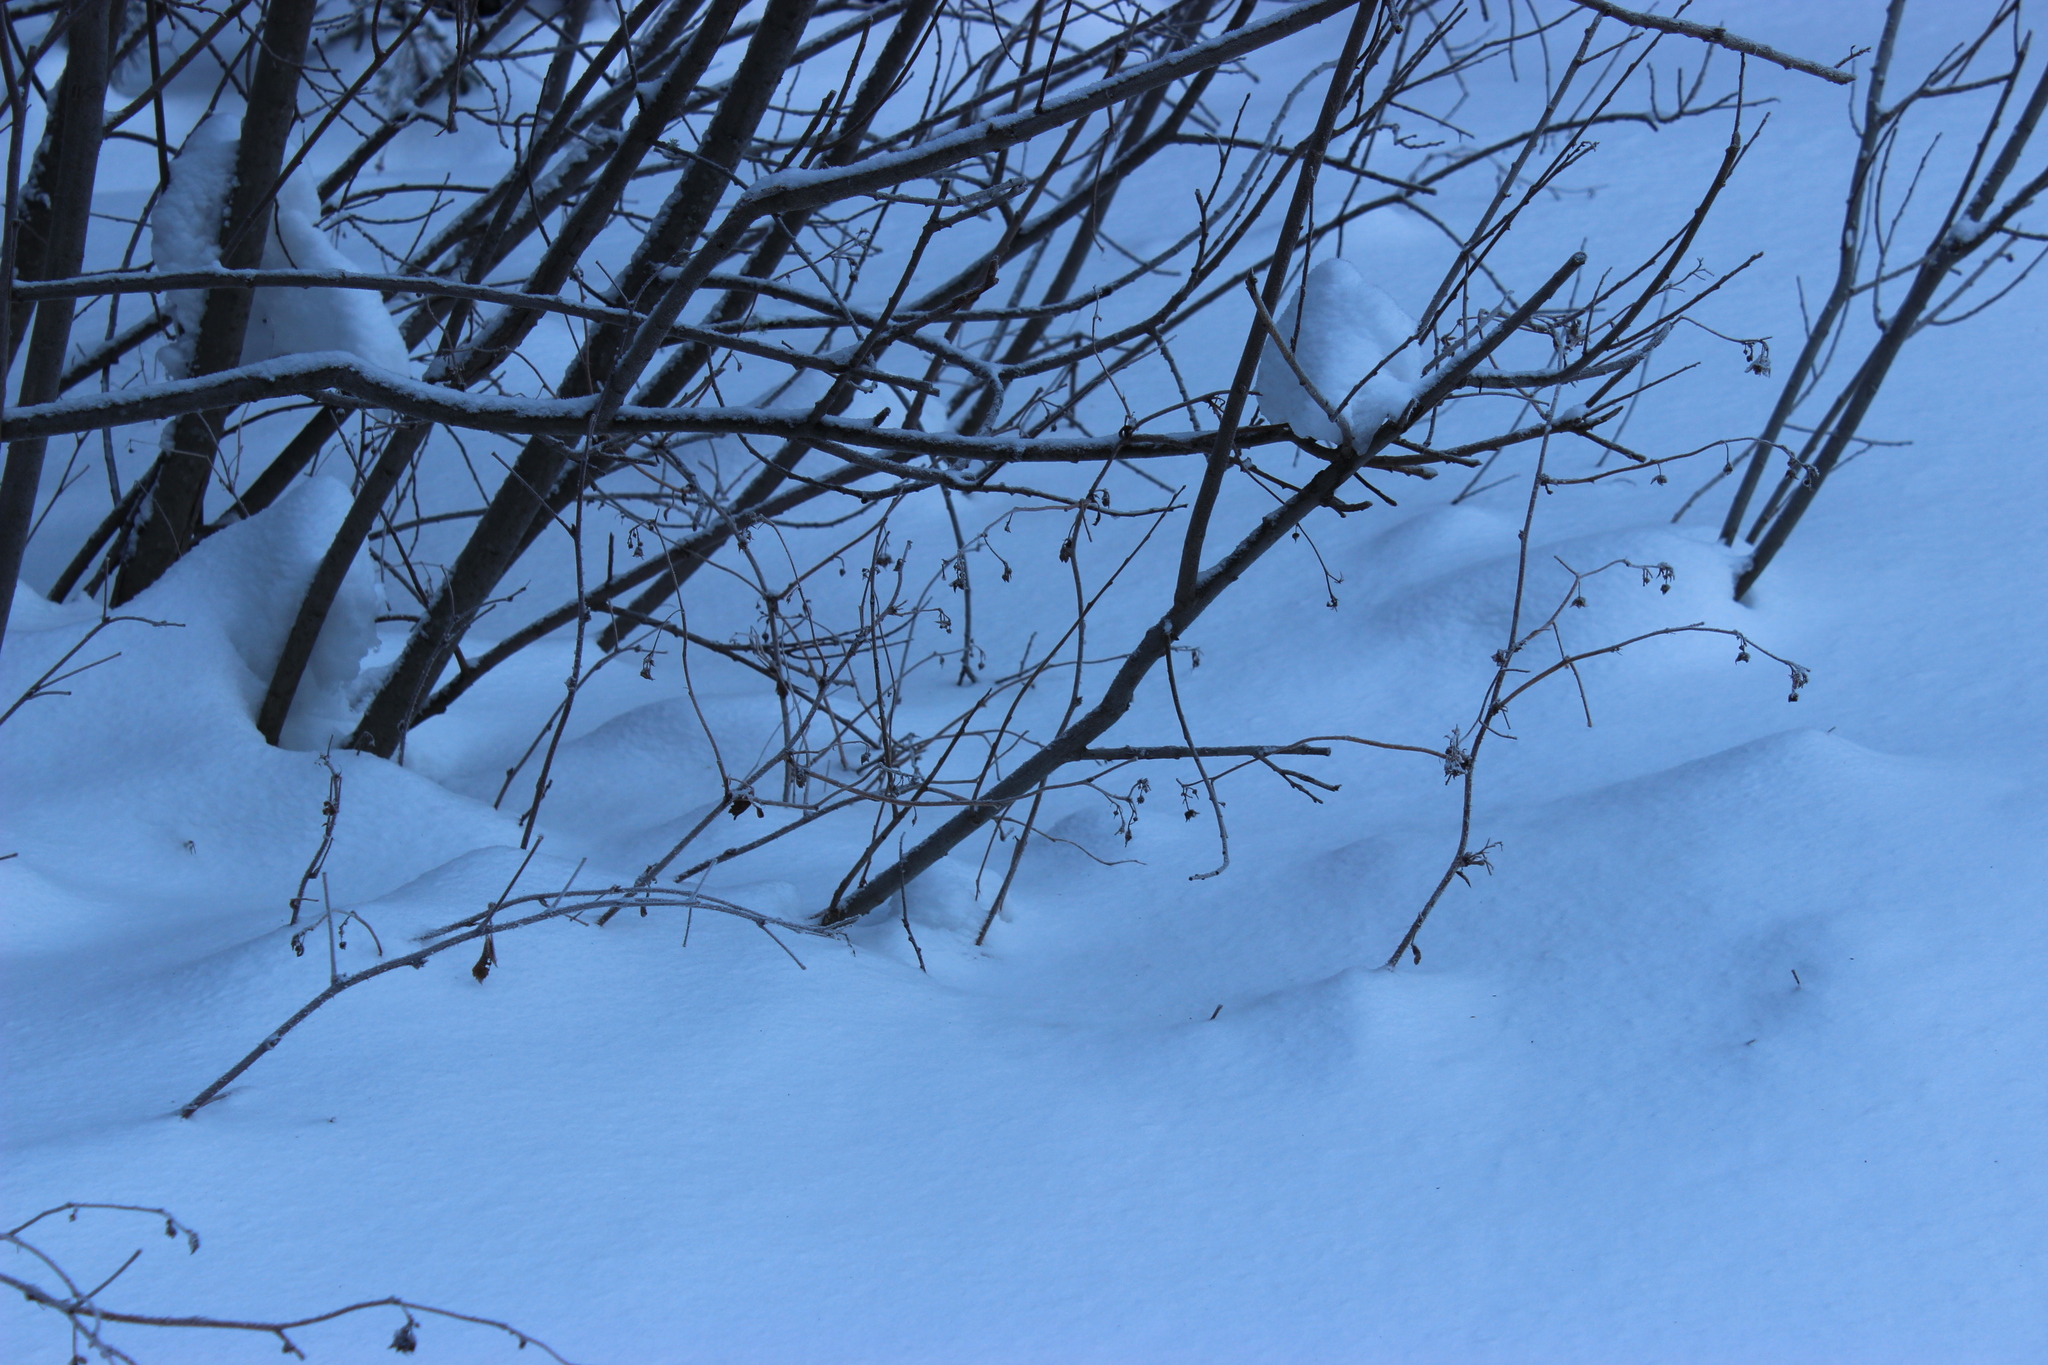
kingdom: Plantae
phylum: Tracheophyta
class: Magnoliopsida
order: Rosales
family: Rosaceae
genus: Rubus
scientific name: Rubus idaeus
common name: Raspberry
